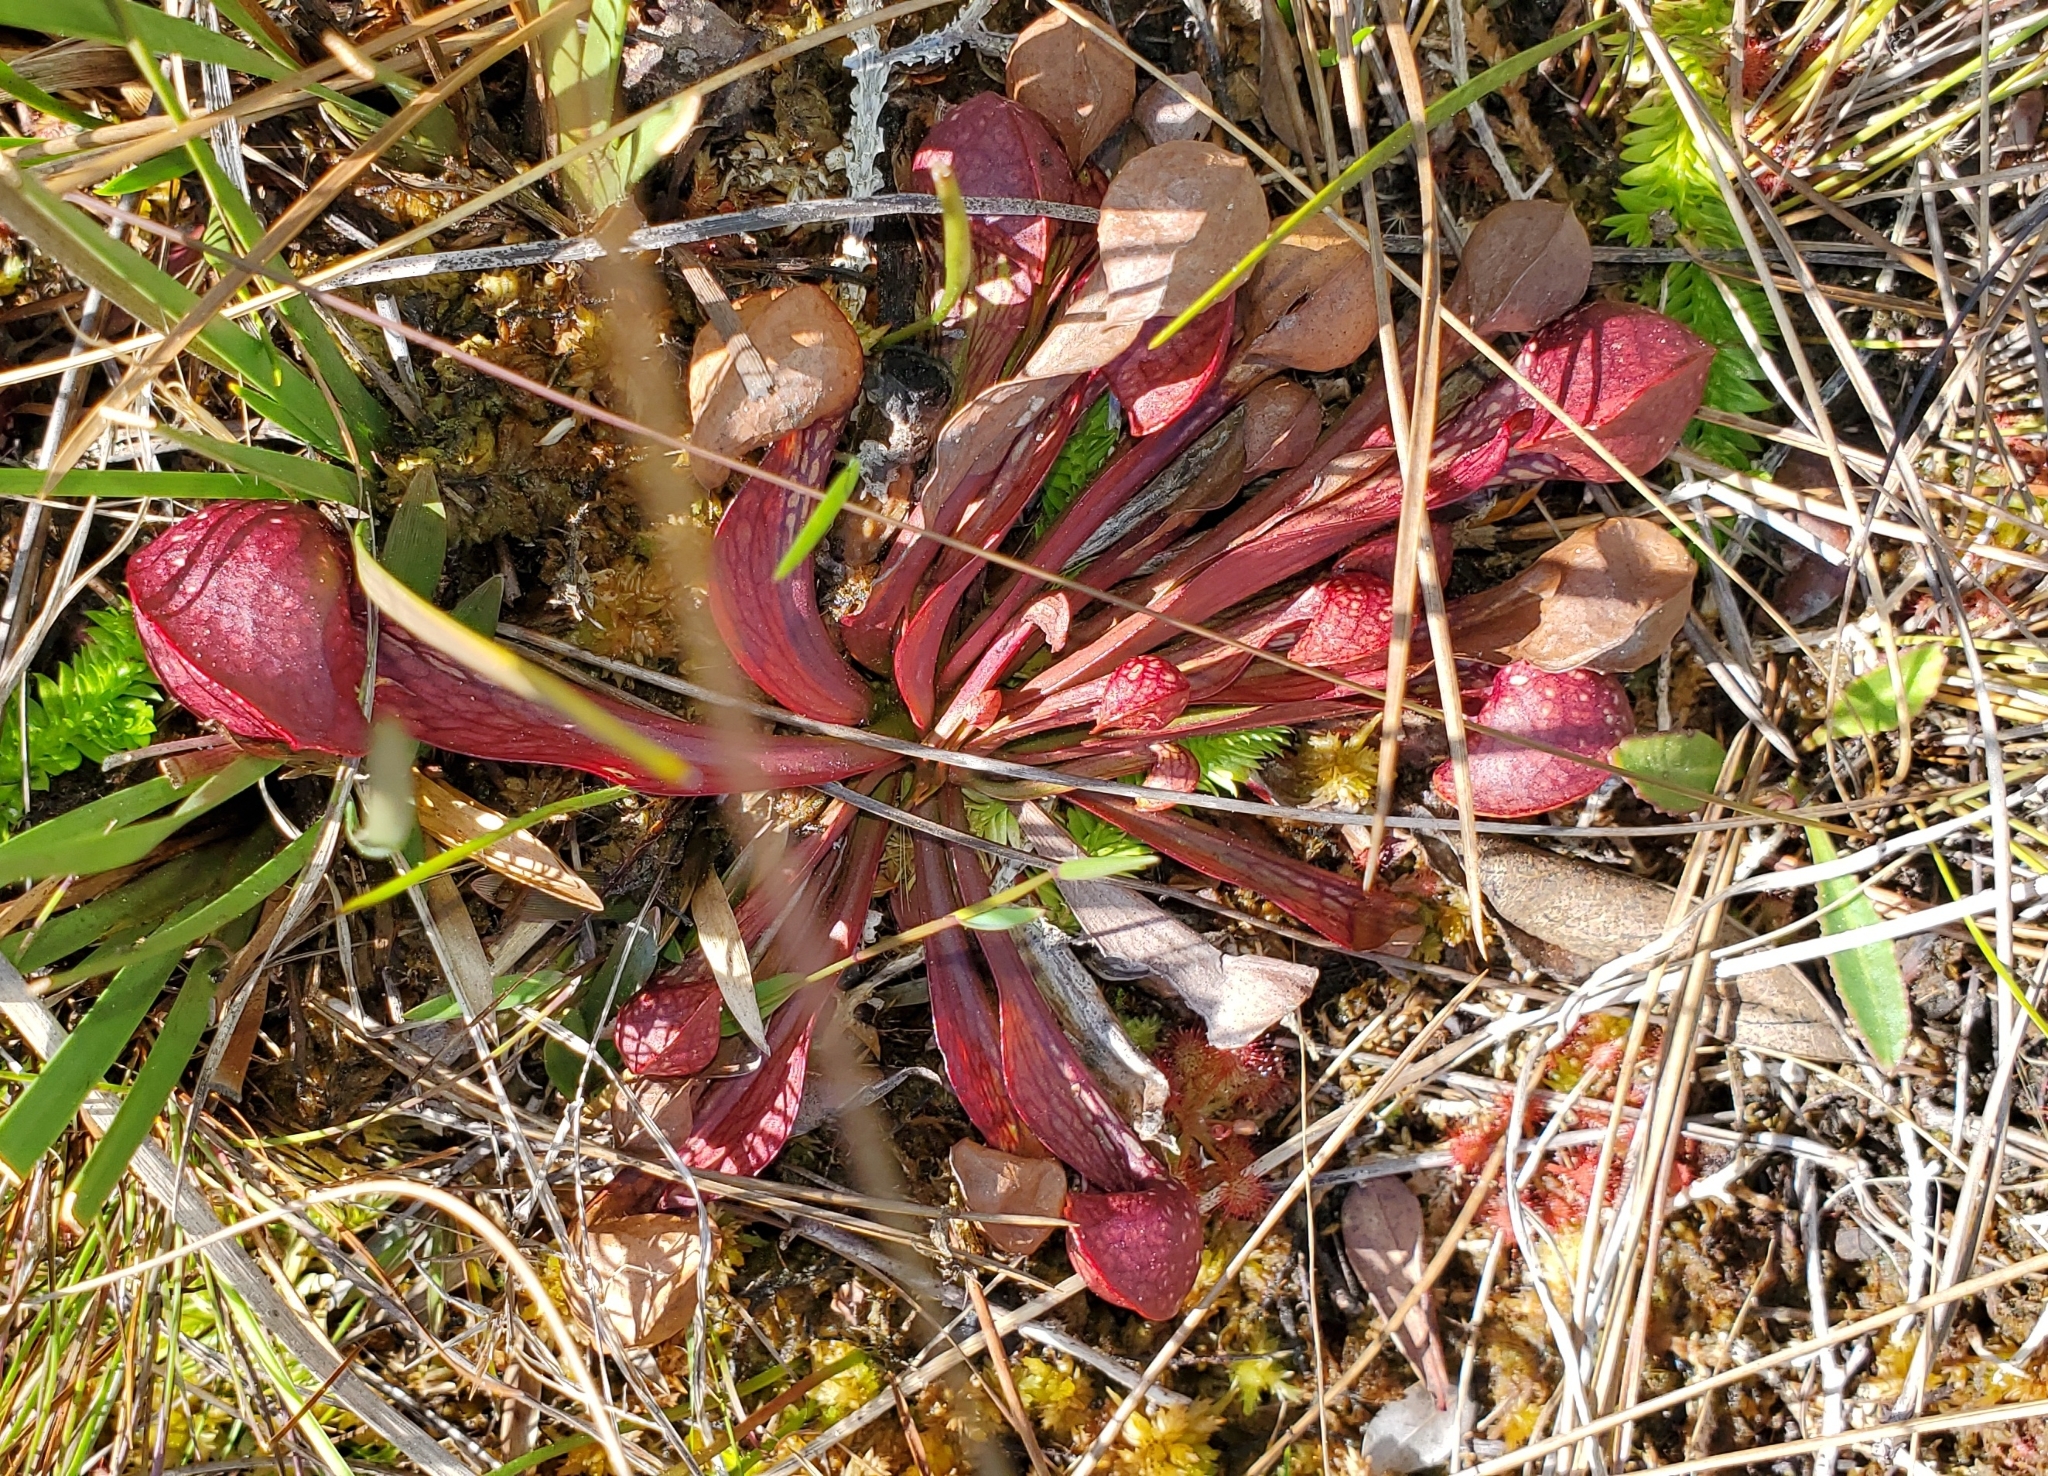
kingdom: Plantae
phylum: Tracheophyta
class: Magnoliopsida
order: Ericales
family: Sarraceniaceae
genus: Sarracenia
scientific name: Sarracenia psittacina
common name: Parrot pitcherplant
